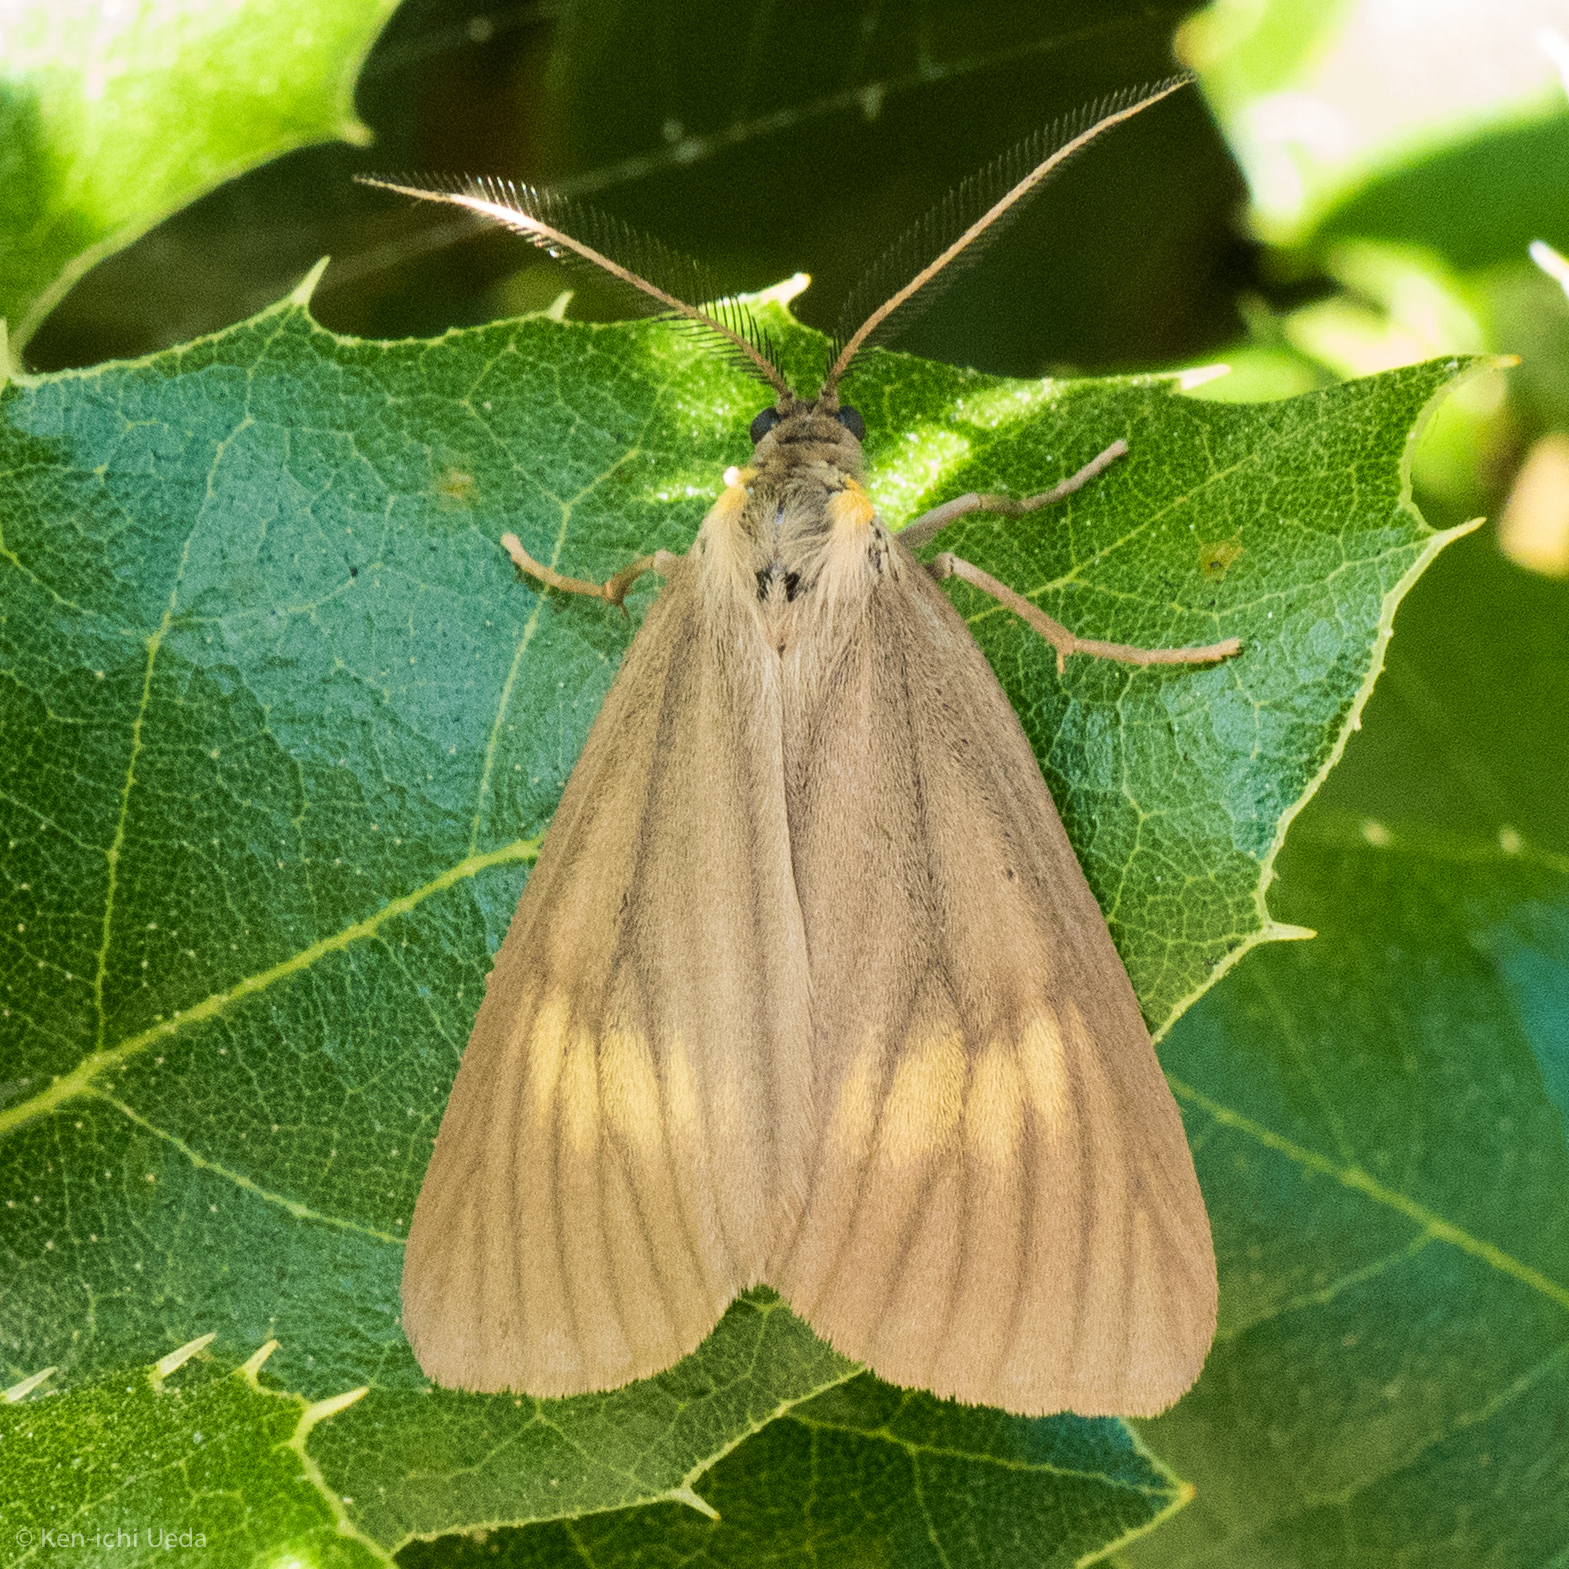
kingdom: Animalia
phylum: Arthropoda
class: Insecta
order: Lepidoptera
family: Notodontidae
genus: Phryganidia
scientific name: Phryganidia californica
